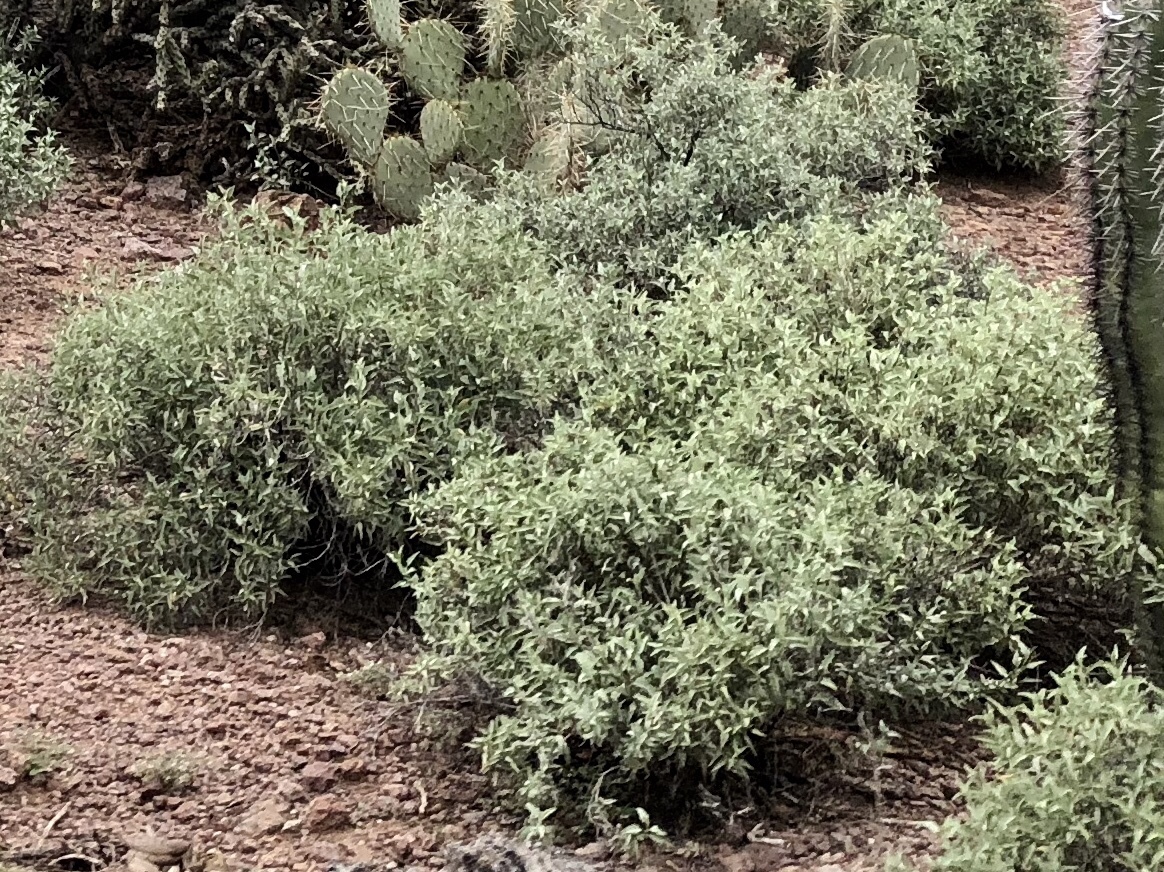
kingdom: Plantae
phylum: Tracheophyta
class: Magnoliopsida
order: Asterales
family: Asteraceae
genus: Ambrosia
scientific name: Ambrosia deltoidea
